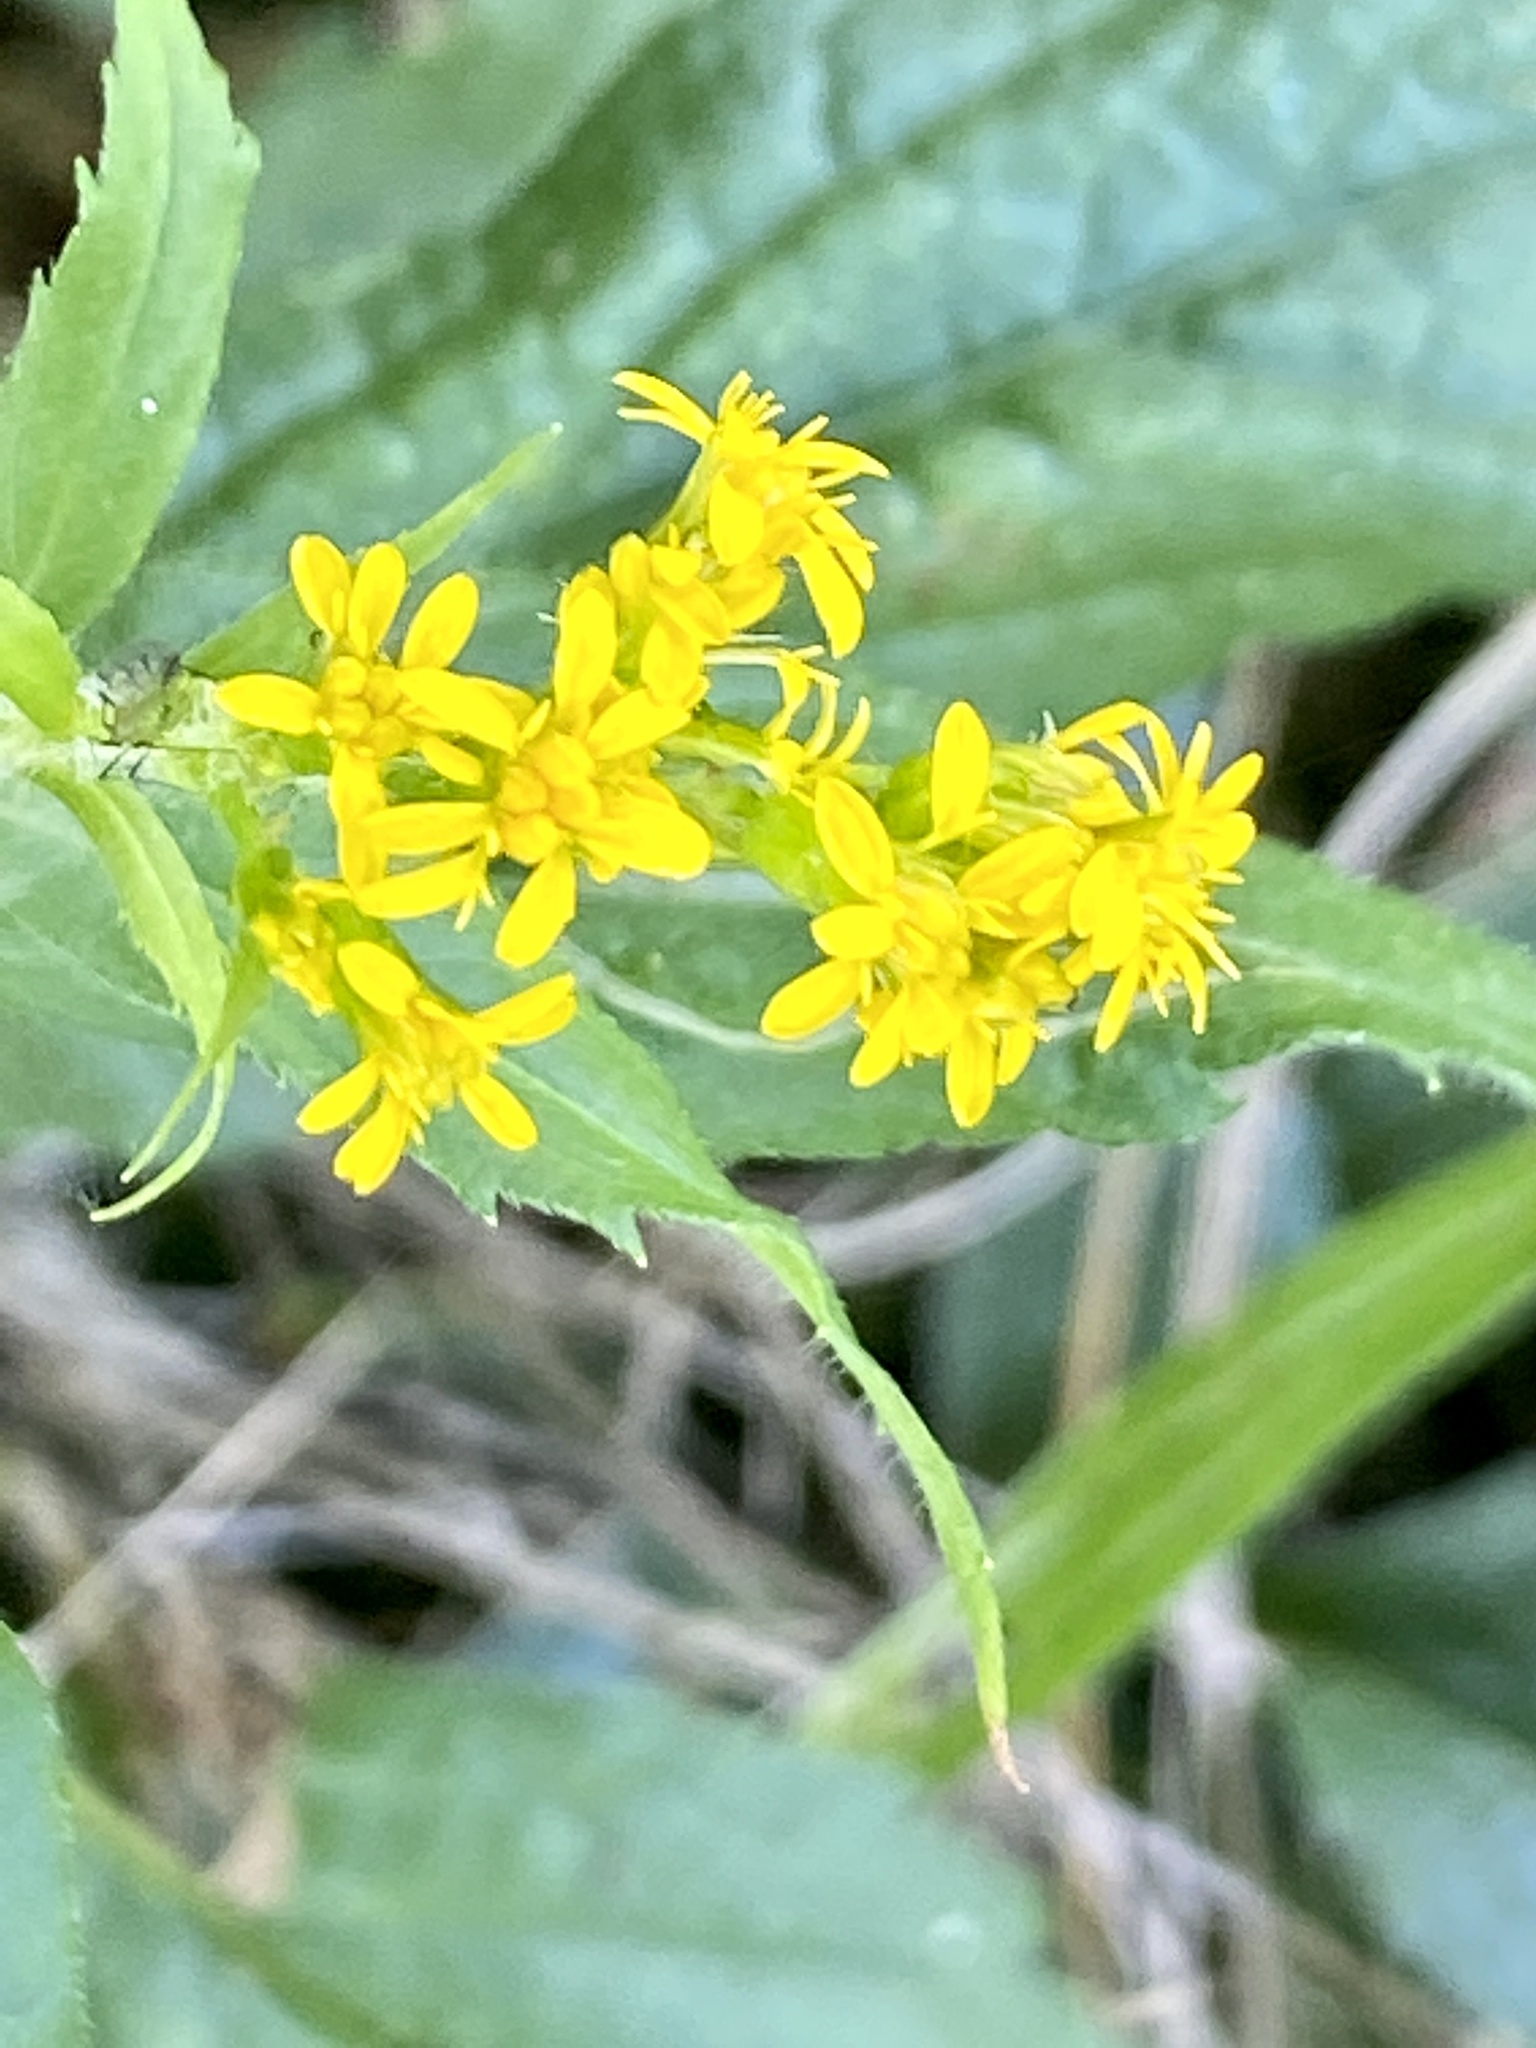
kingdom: Plantae
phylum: Tracheophyta
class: Magnoliopsida
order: Asterales
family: Asteraceae
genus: Solidago
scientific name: Solidago rugosa
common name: Rough-stemmed goldenrod
